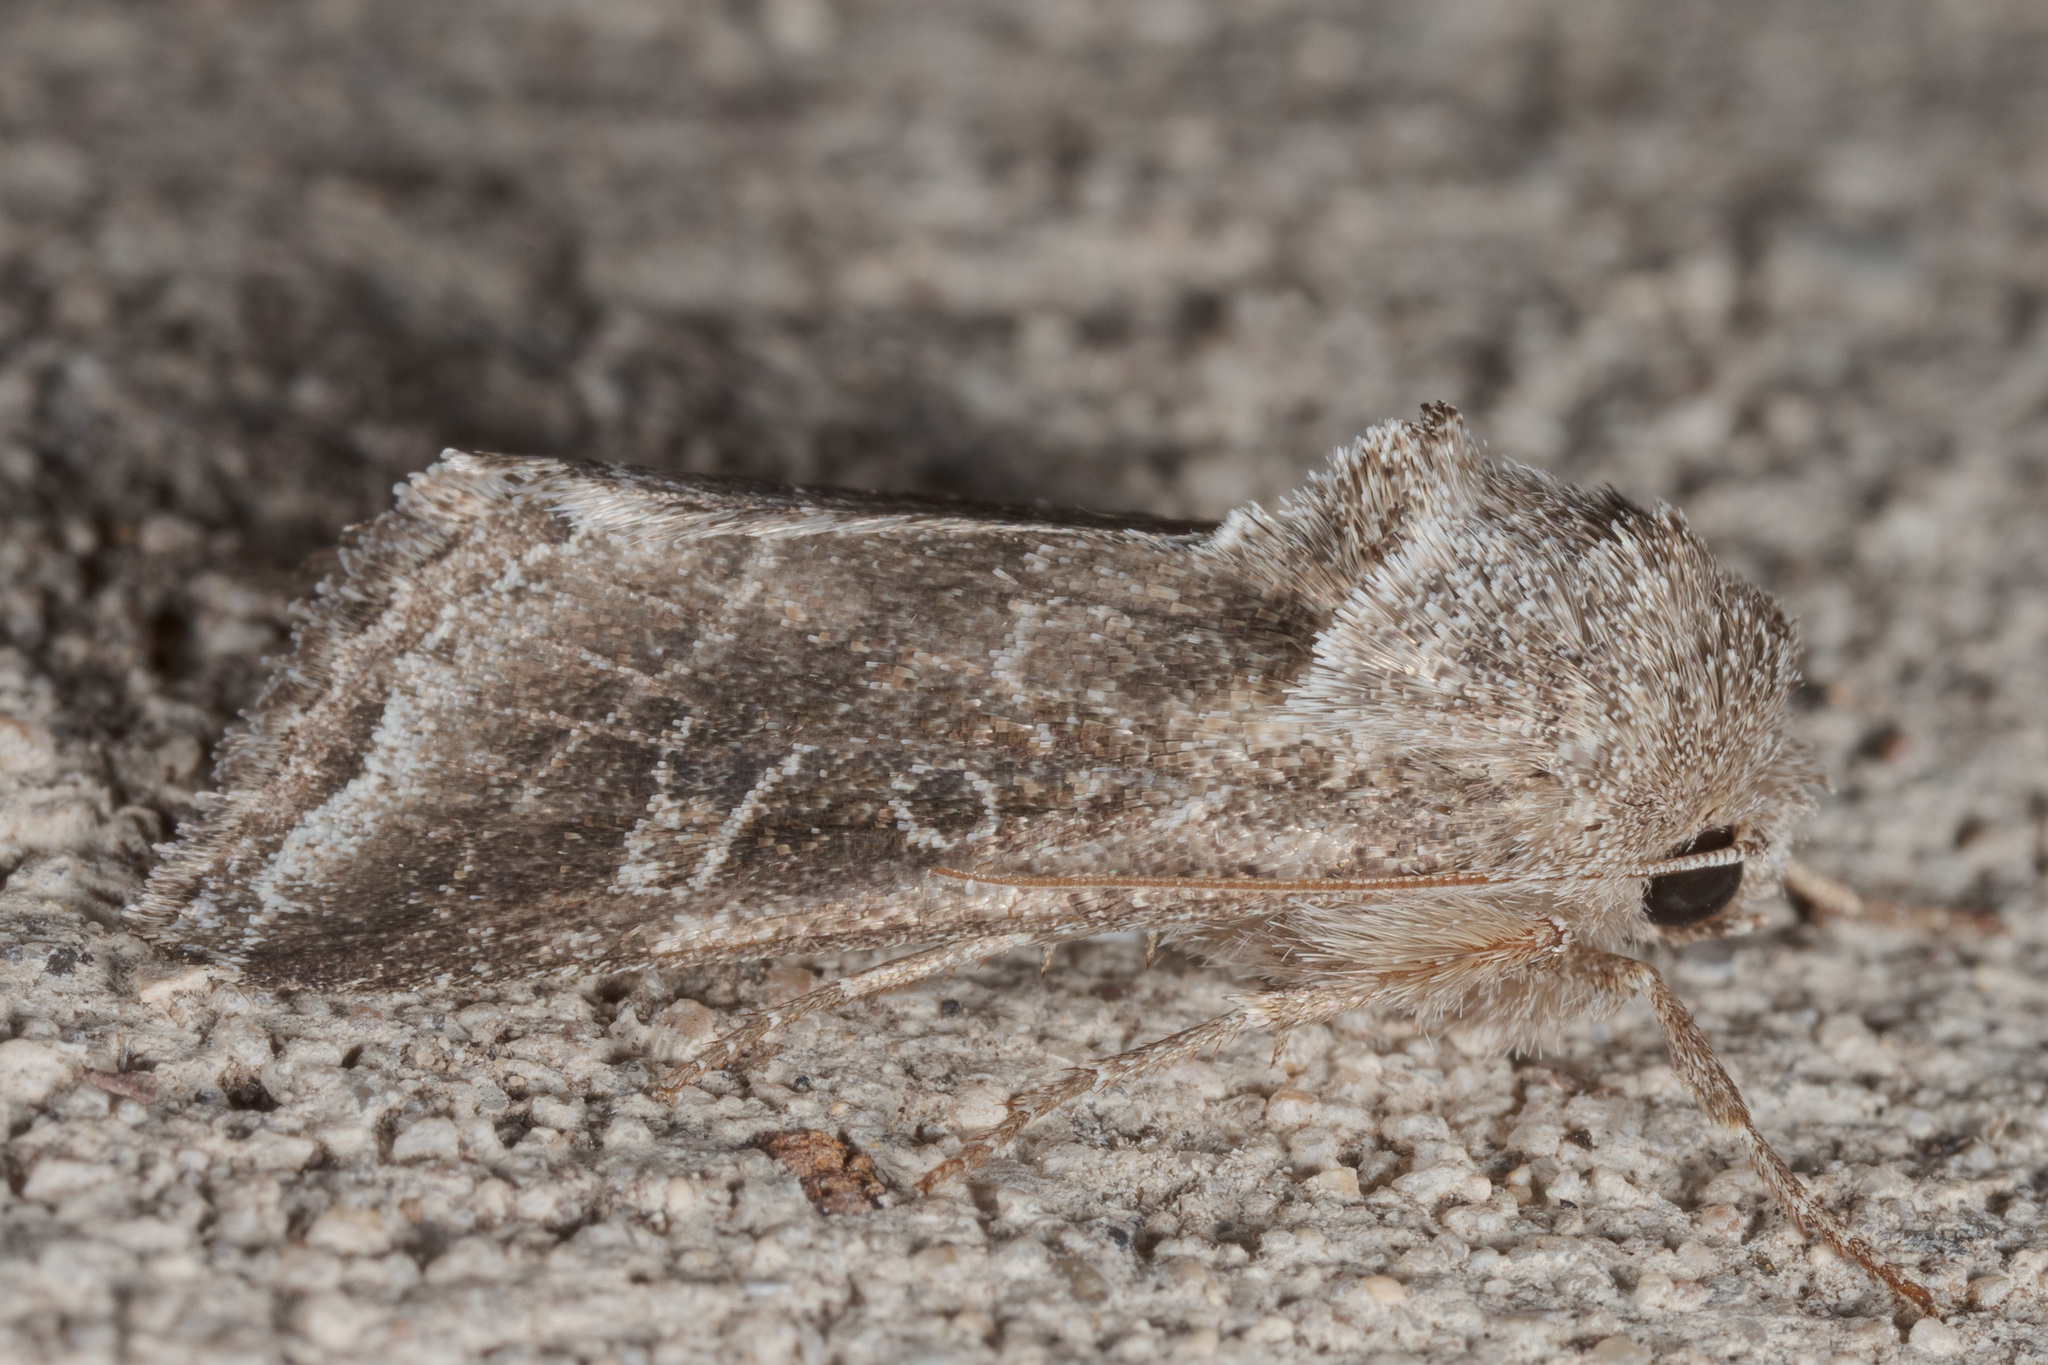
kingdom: Animalia
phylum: Arthropoda
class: Insecta
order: Lepidoptera
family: Noctuidae
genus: Lacinipolia
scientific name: Lacinipolia erecta
